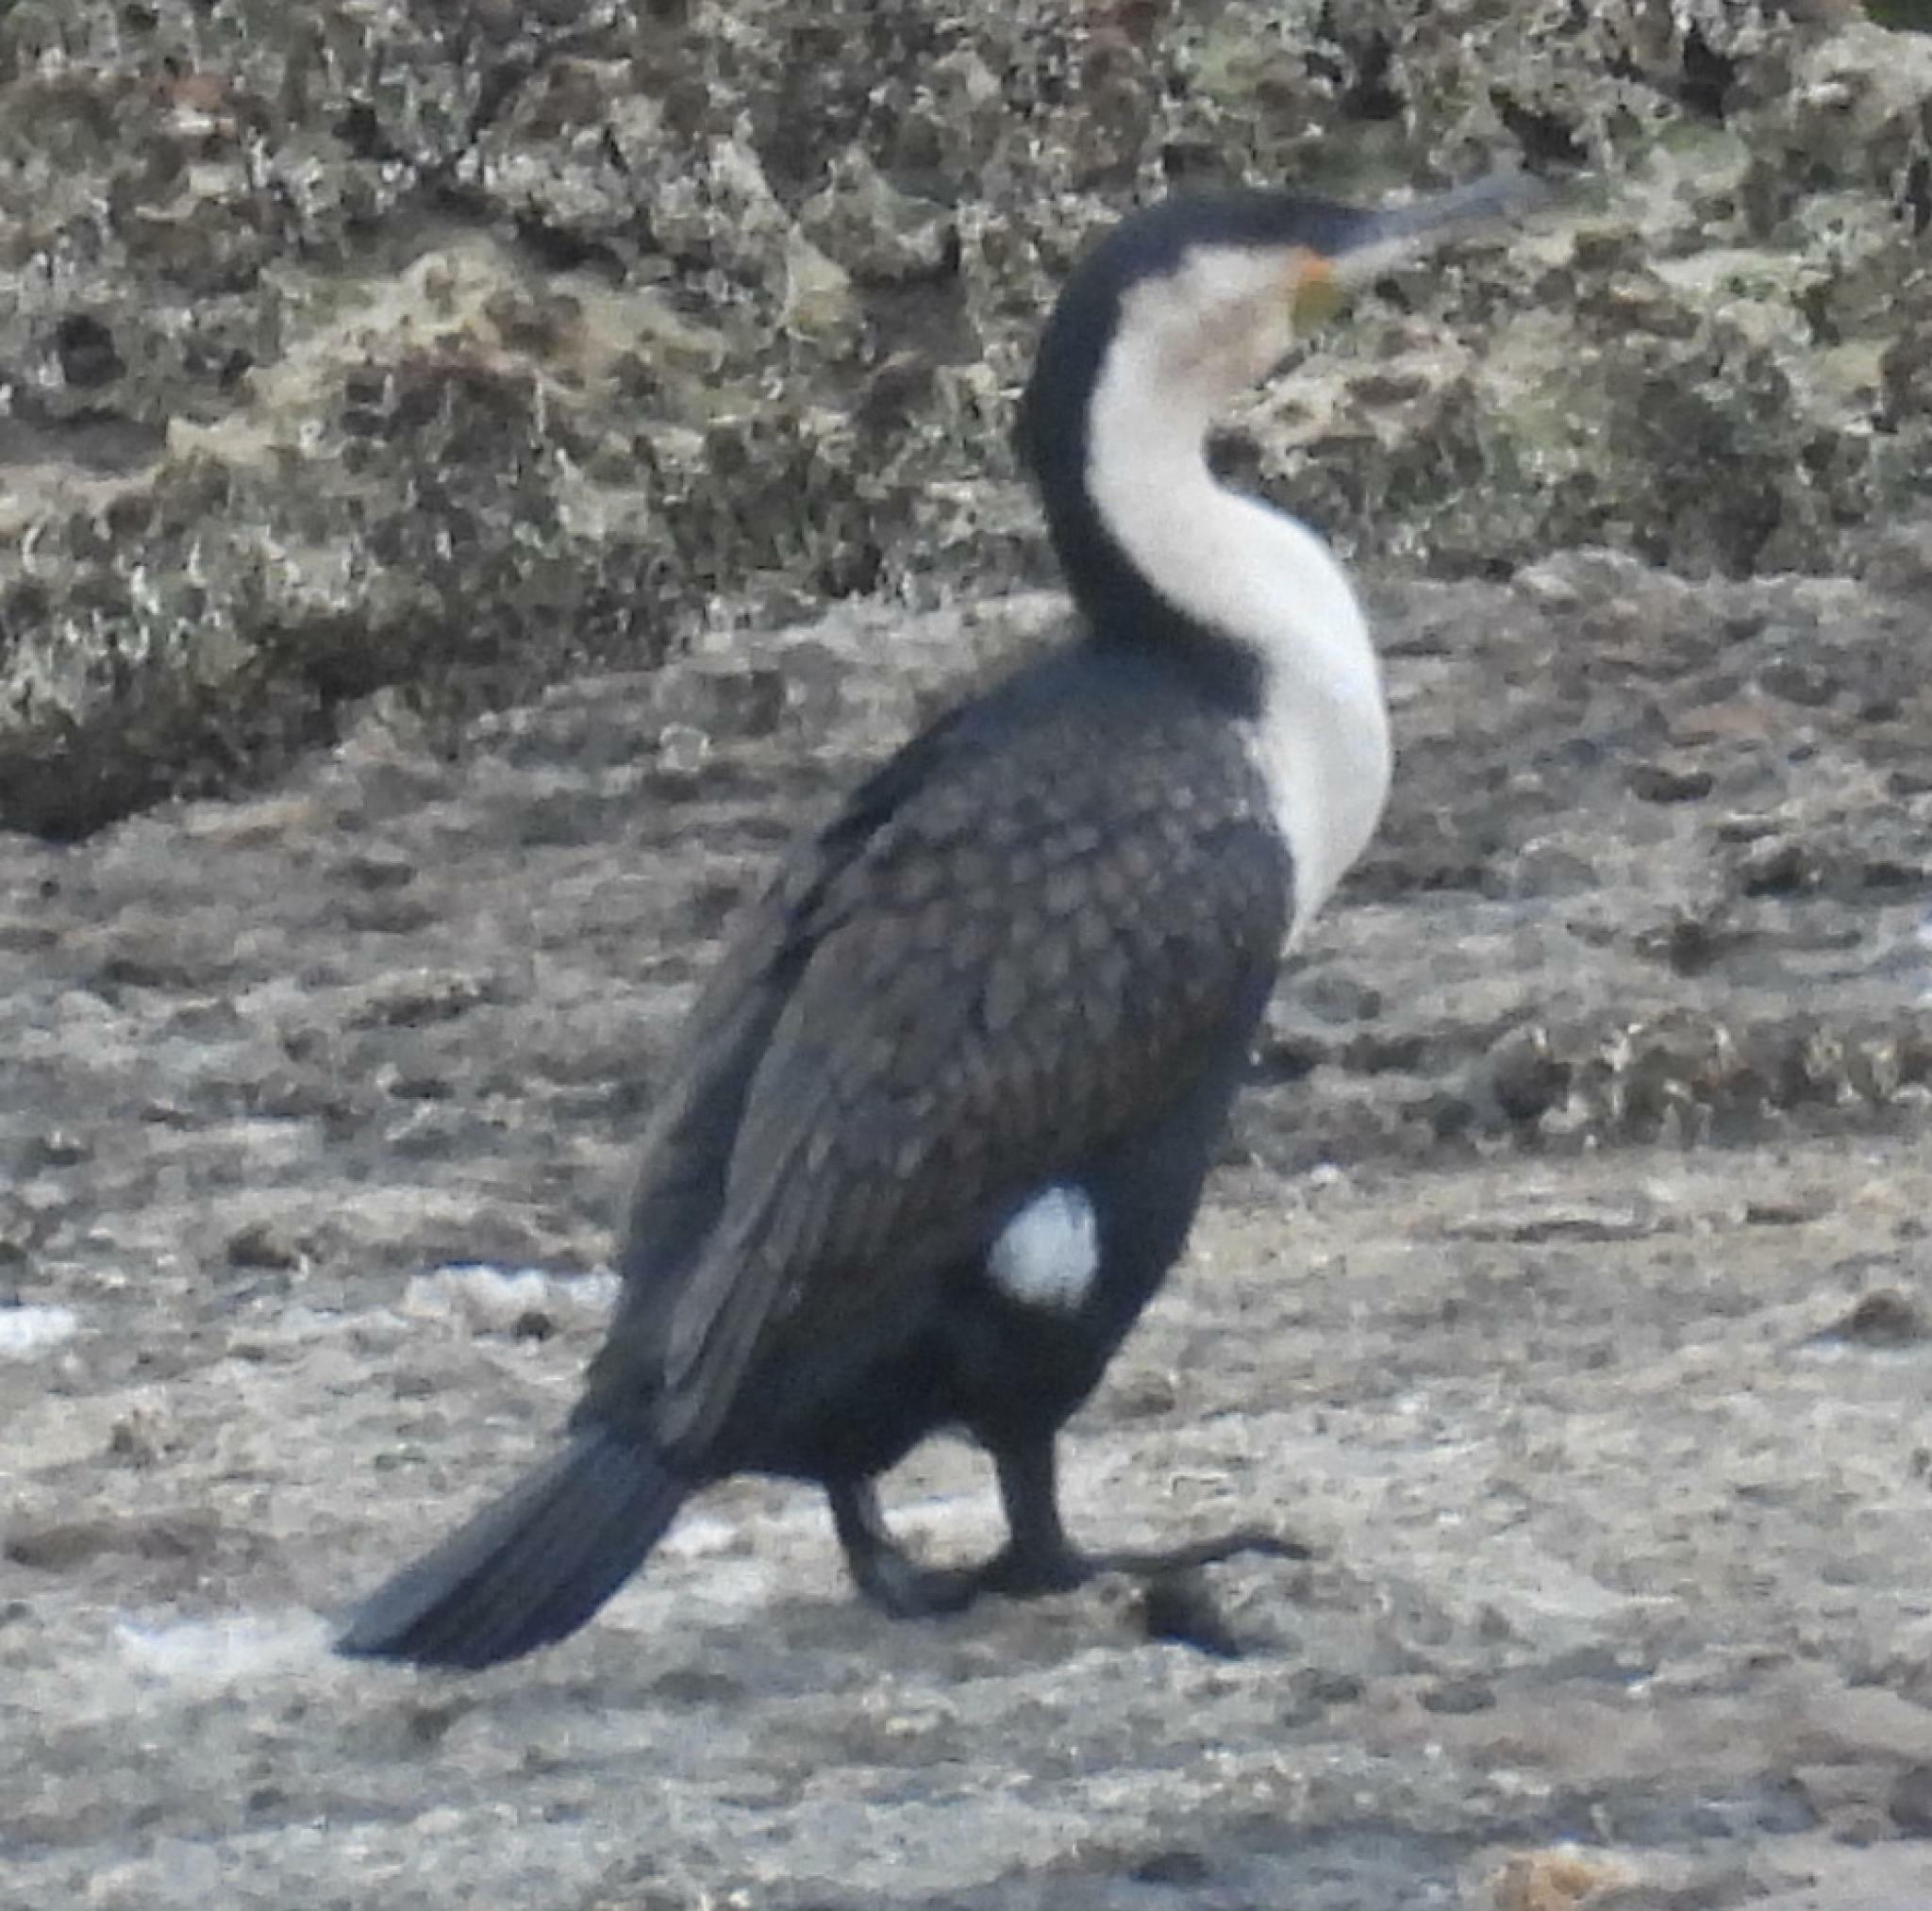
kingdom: Animalia
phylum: Chordata
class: Aves
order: Suliformes
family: Phalacrocoracidae
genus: Phalacrocorax
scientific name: Phalacrocorax carbo
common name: Great cormorant
